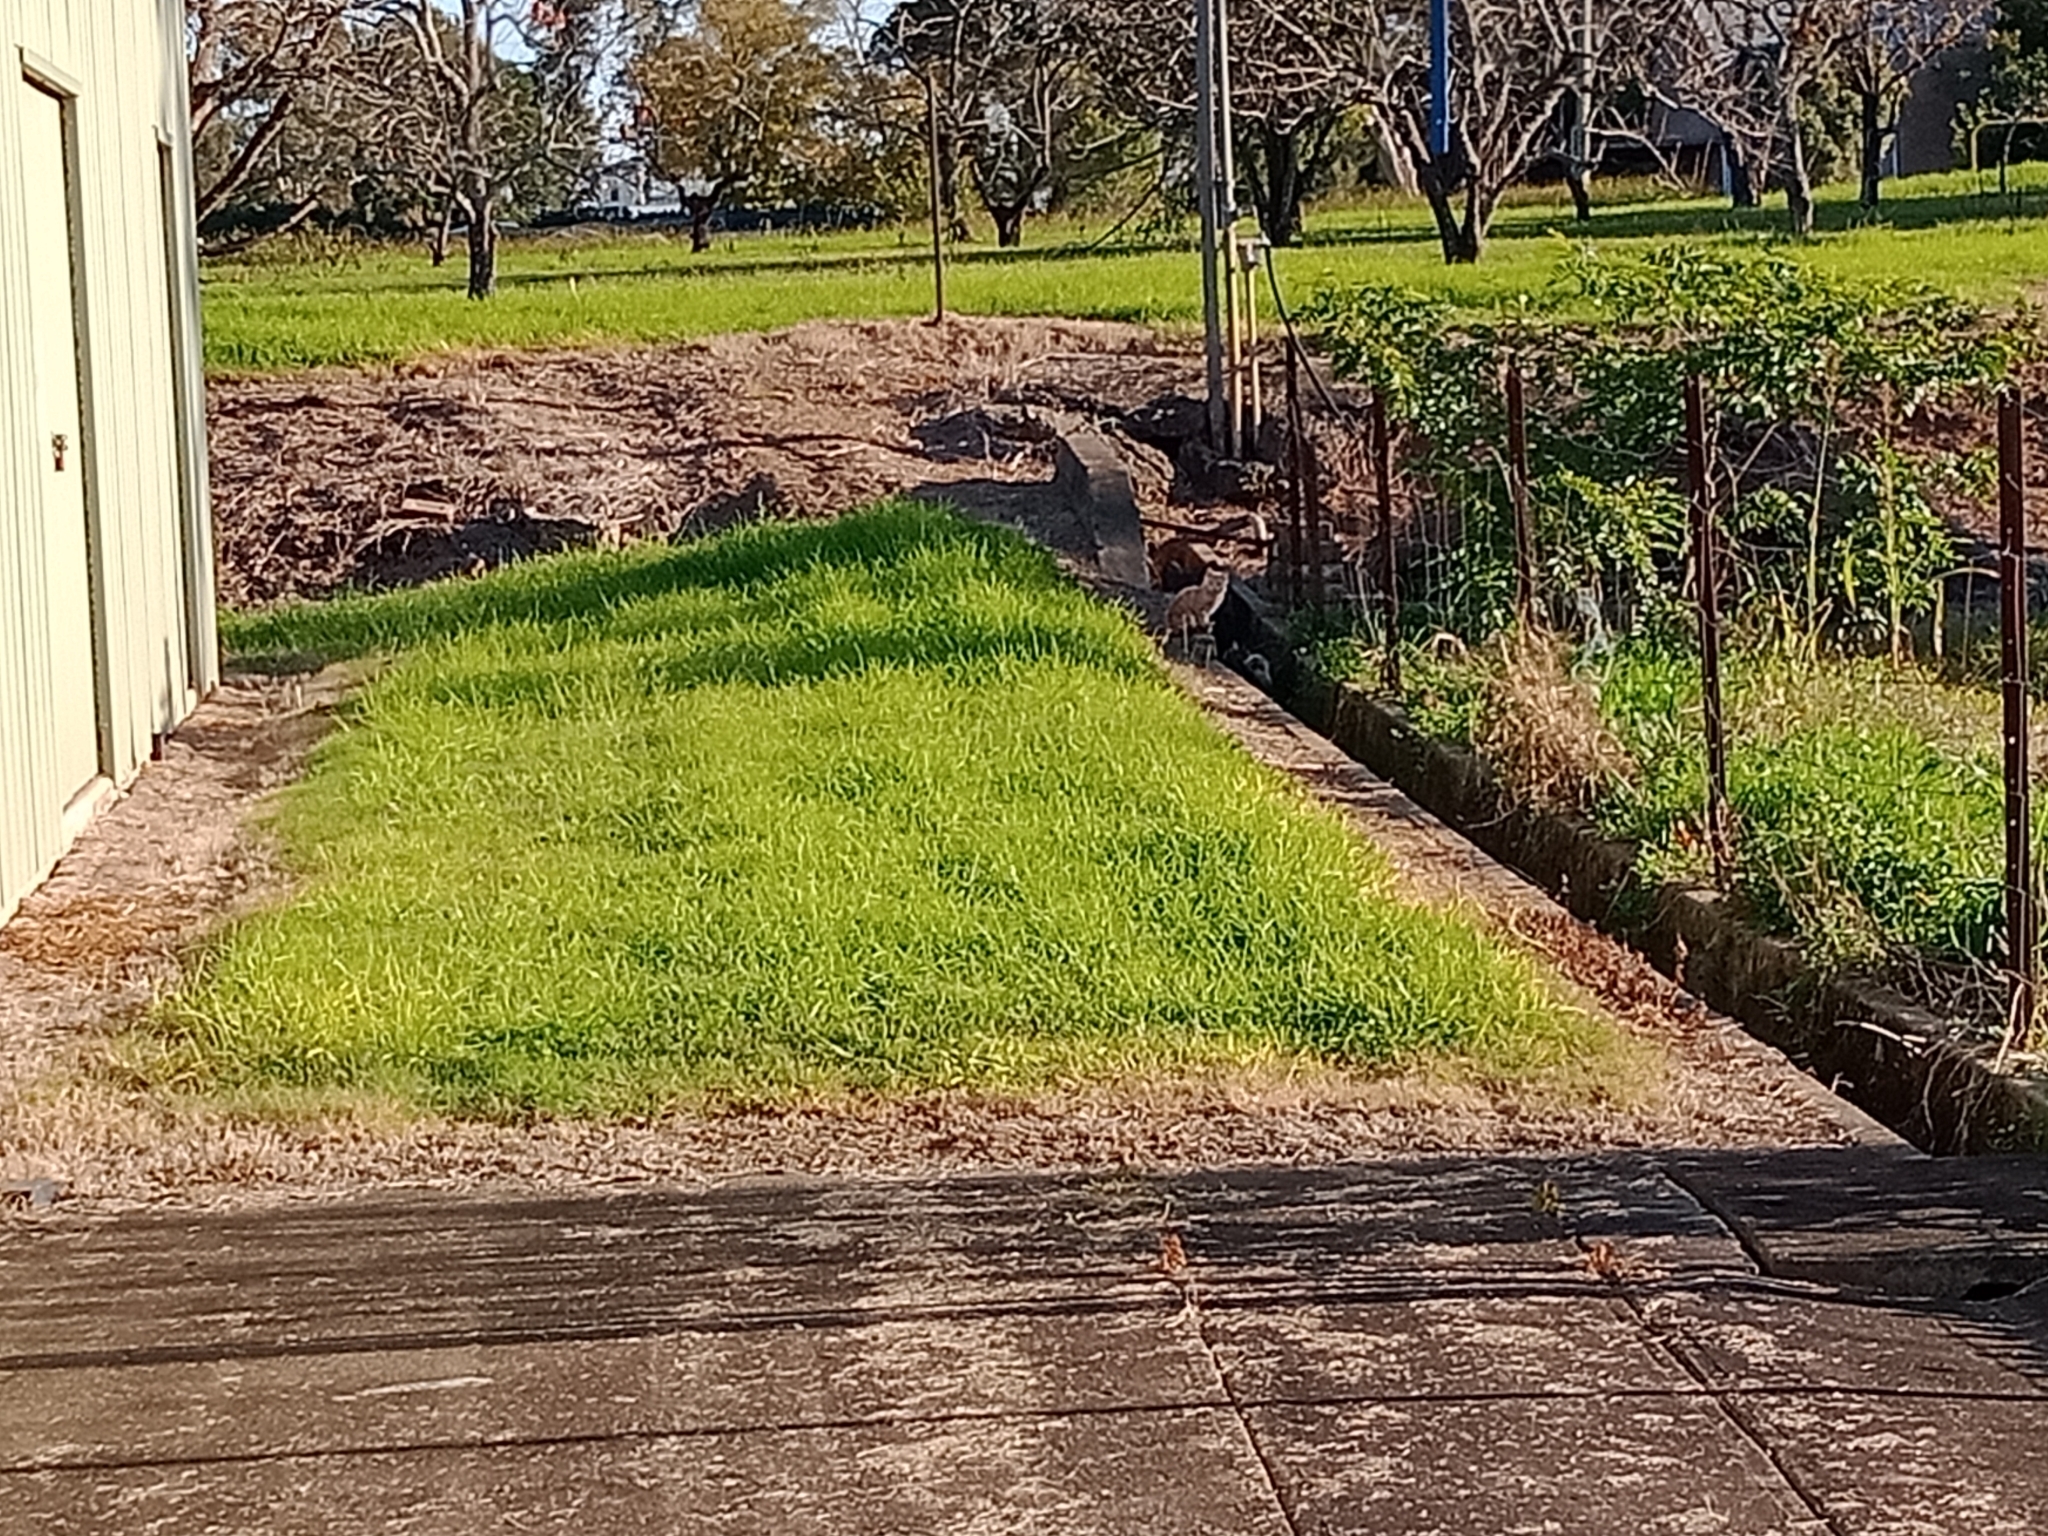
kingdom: Animalia
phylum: Chordata
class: Mammalia
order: Carnivora
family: Felidae
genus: Felis
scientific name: Felis catus
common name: Domestic cat
